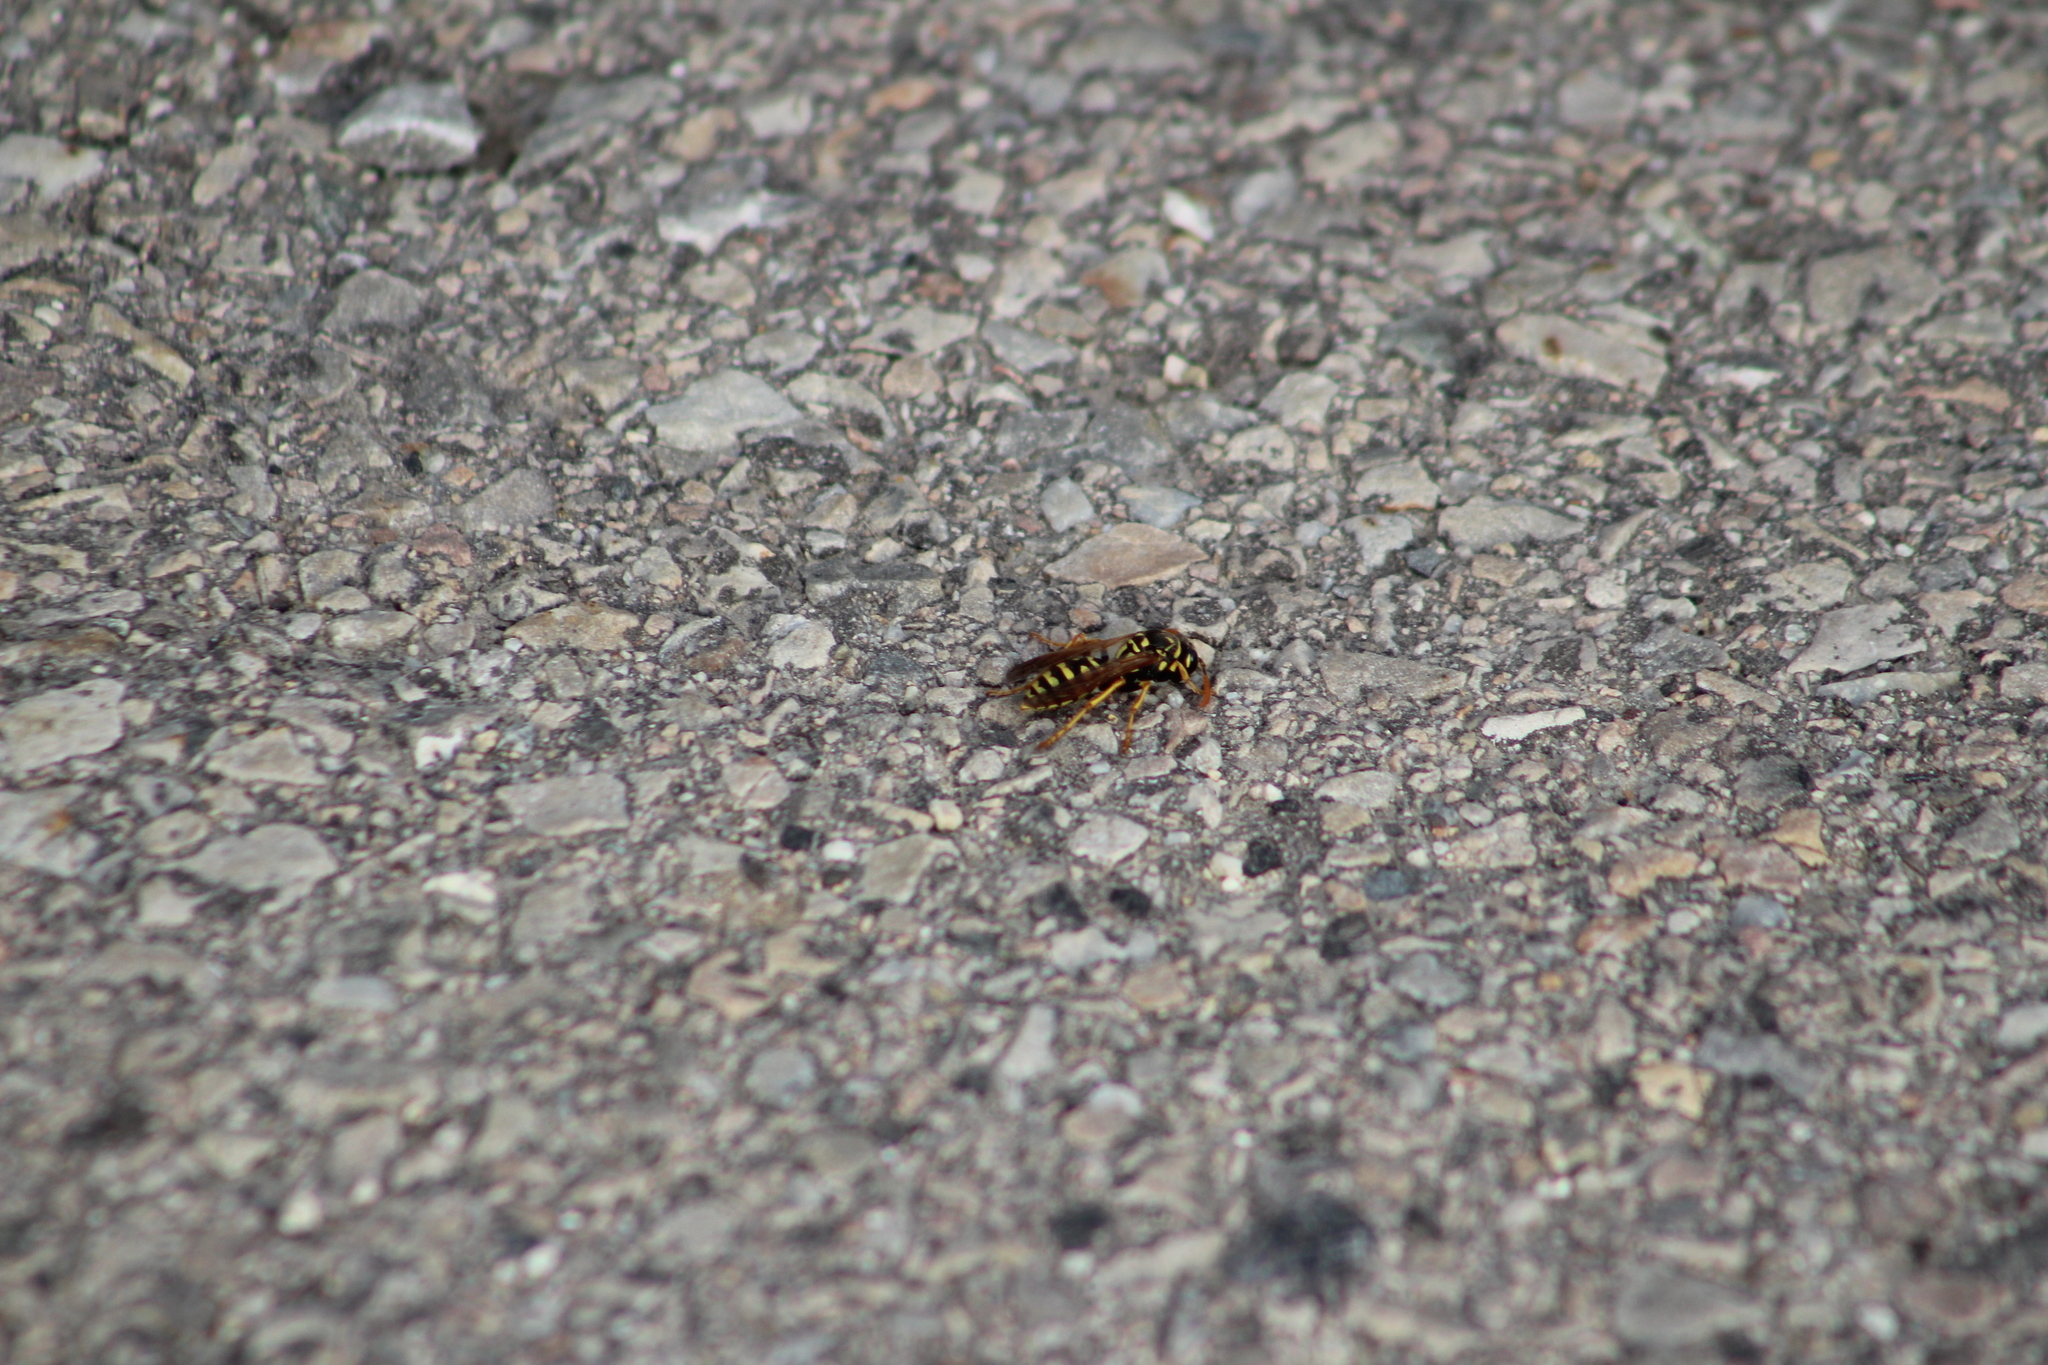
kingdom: Animalia
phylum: Arthropoda
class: Insecta
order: Hymenoptera
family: Eumenidae
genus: Polistes
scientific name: Polistes dominula
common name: Paper wasp
